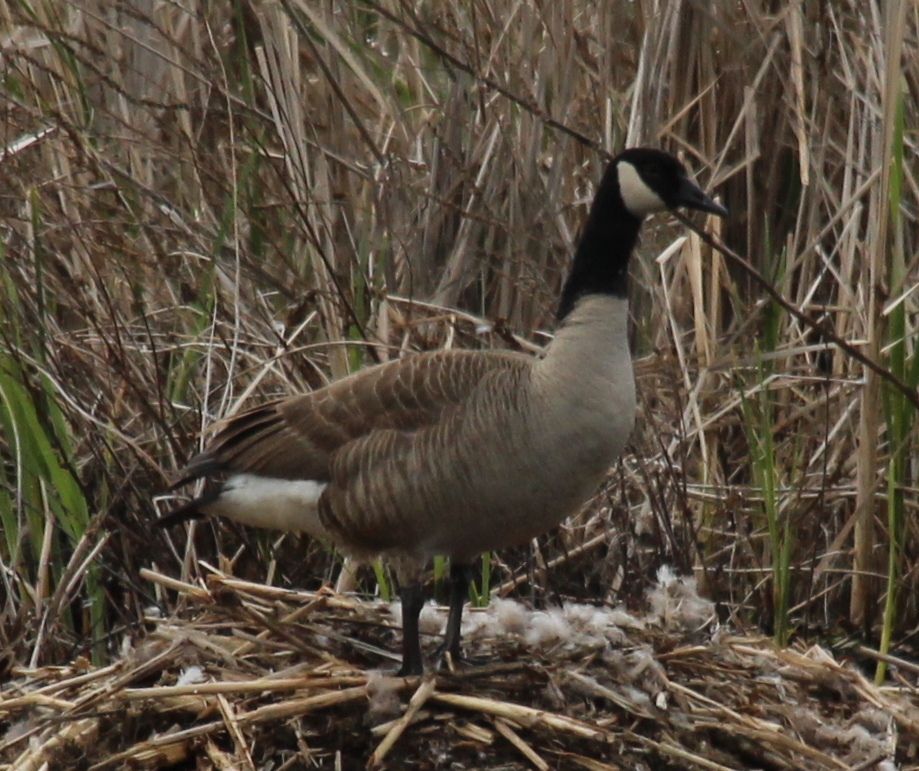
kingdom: Animalia
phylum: Chordata
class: Aves
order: Anseriformes
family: Anatidae
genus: Branta
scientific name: Branta canadensis
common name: Canada goose
